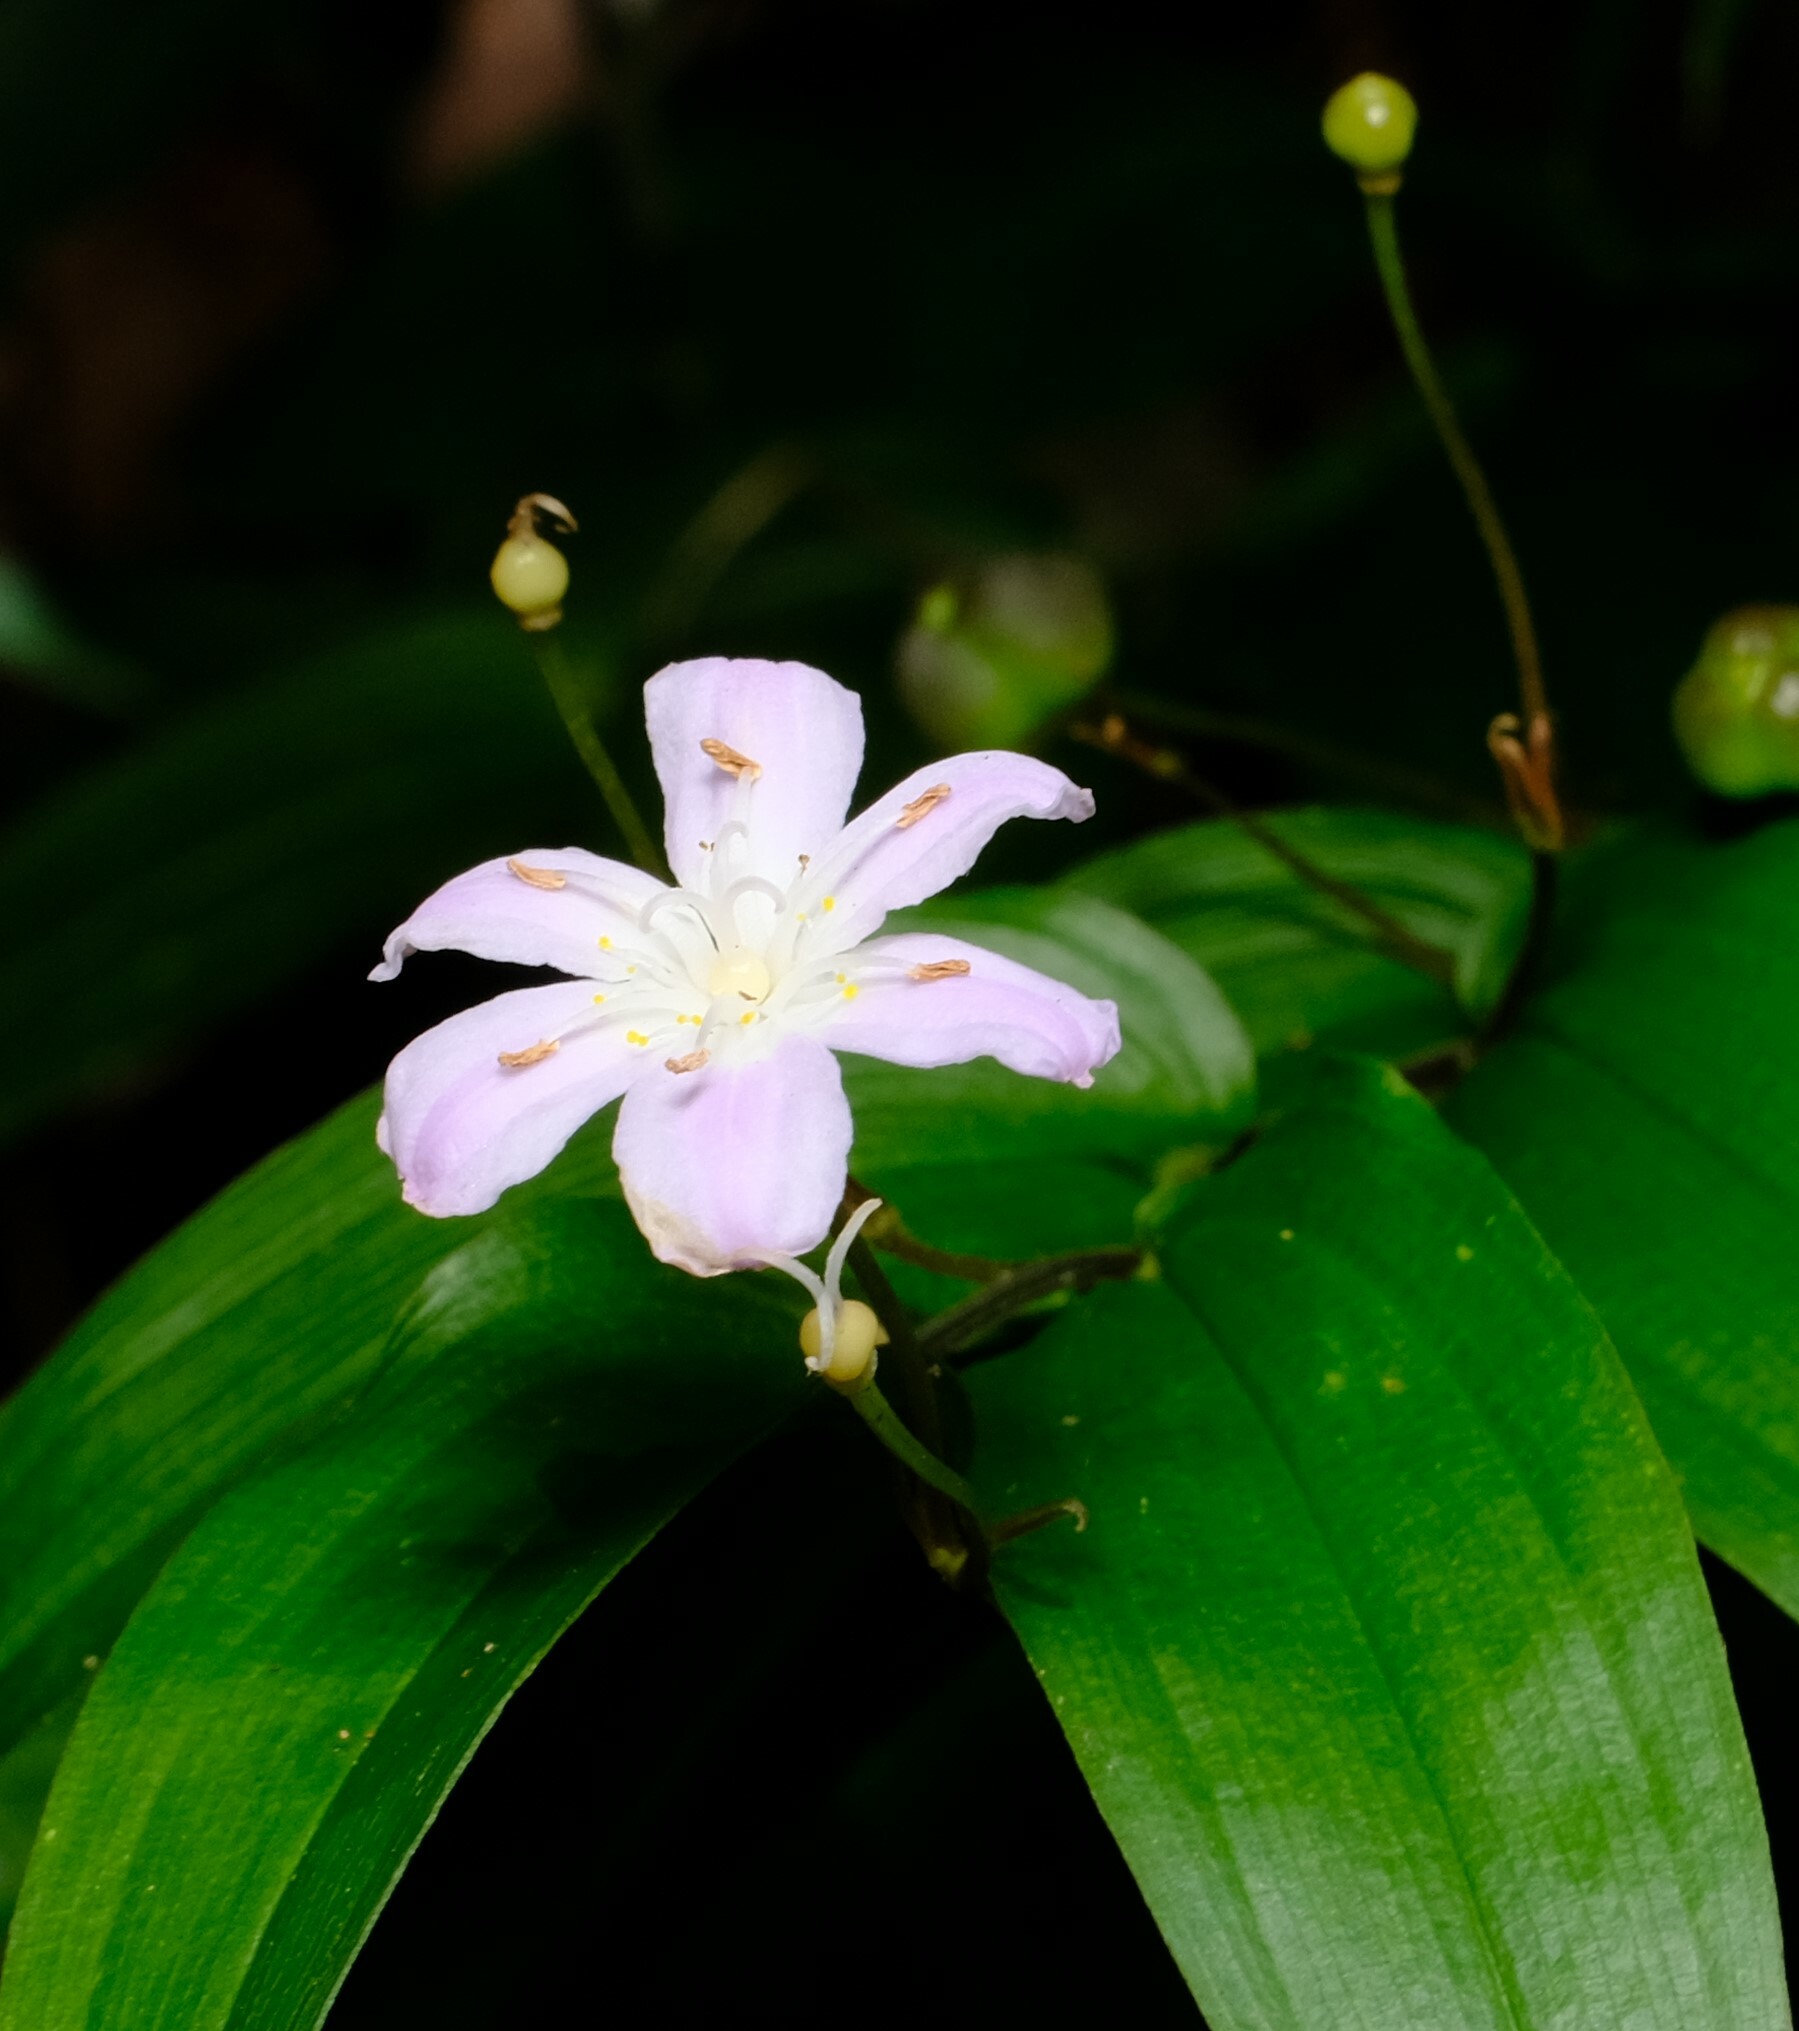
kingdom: Plantae
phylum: Tracheophyta
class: Liliopsida
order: Liliales
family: Colchicaceae
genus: Tripladenia
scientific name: Tripladenia cunninghamii
